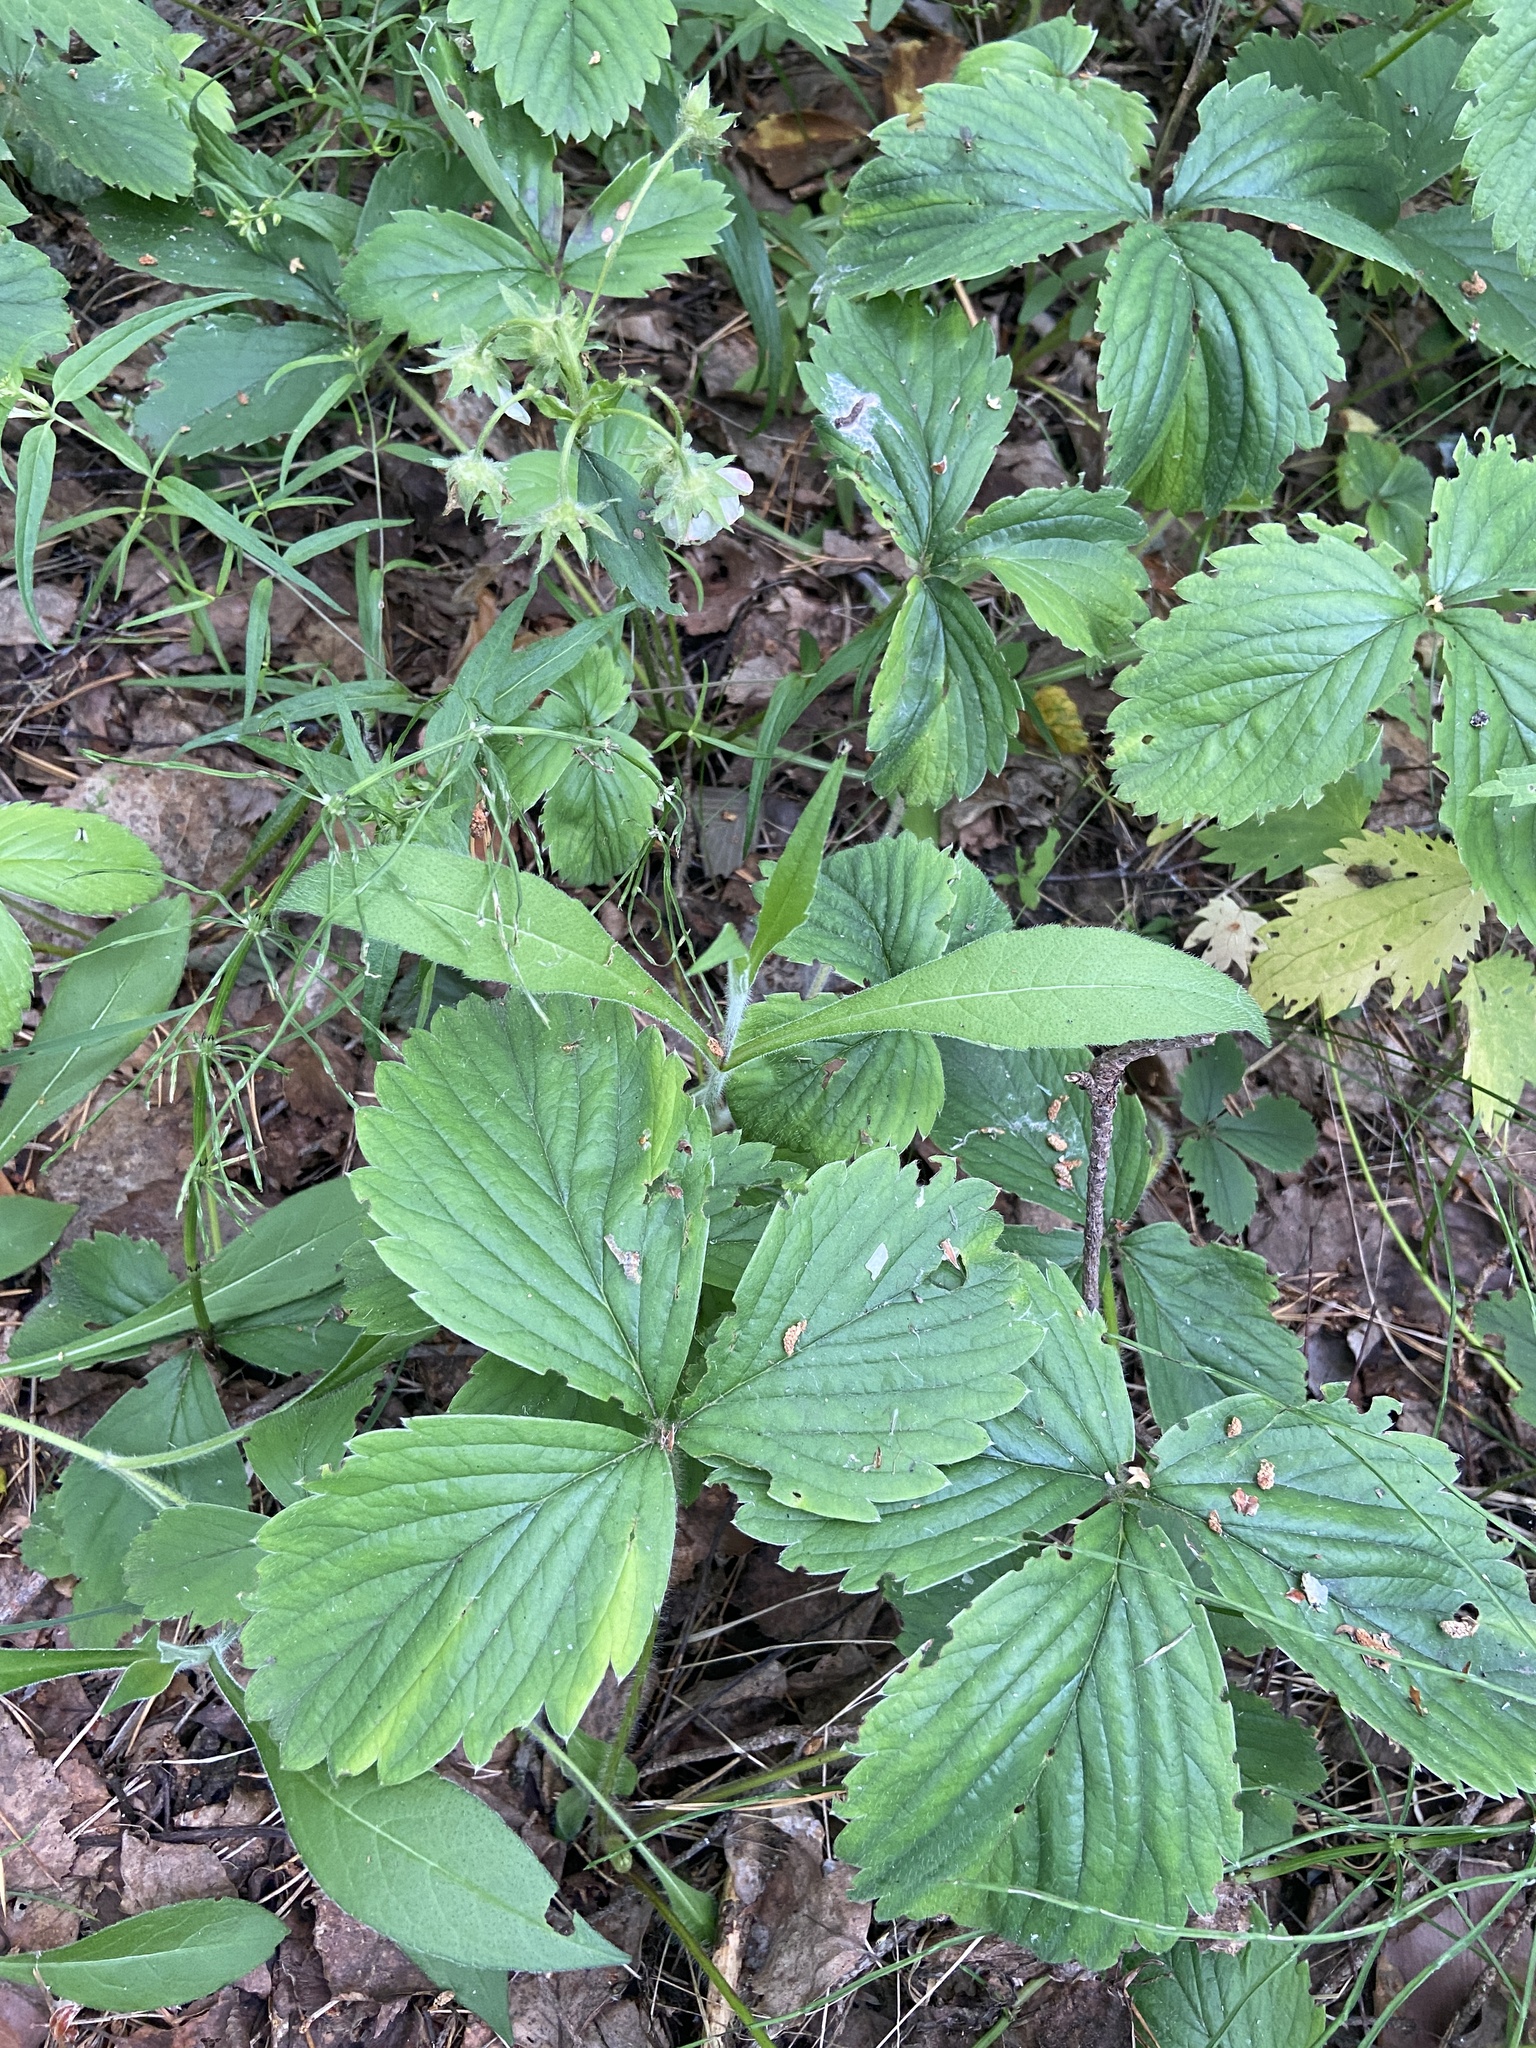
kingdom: Plantae
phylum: Tracheophyta
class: Magnoliopsida
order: Rosales
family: Rosaceae
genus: Fragaria
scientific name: Fragaria moschata
